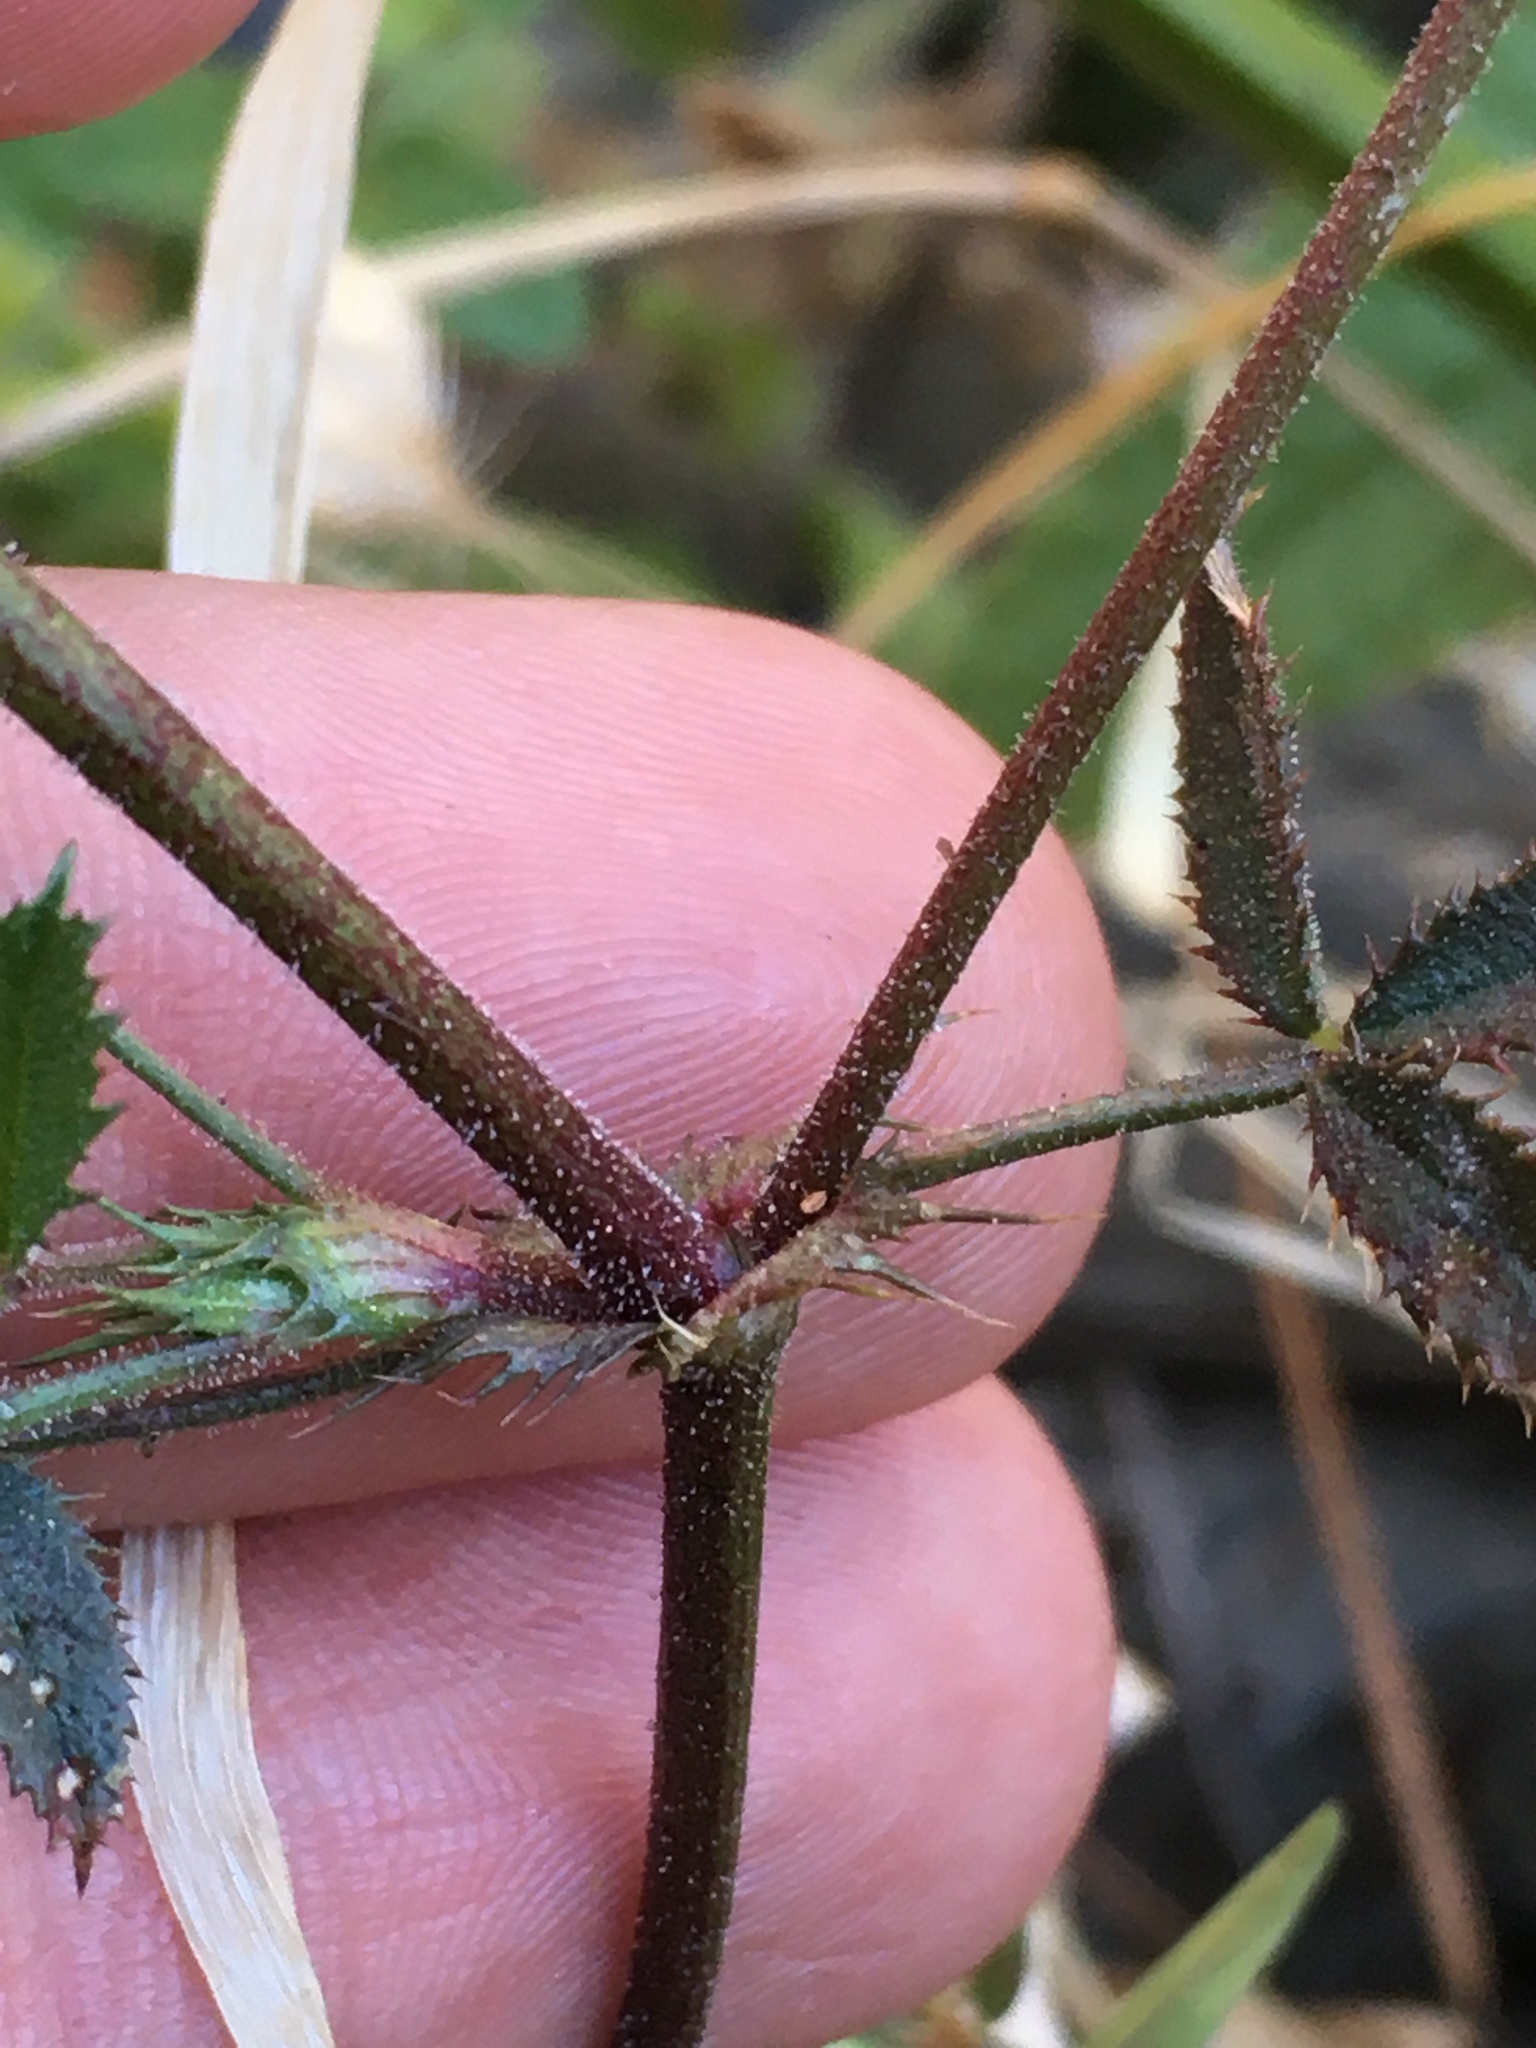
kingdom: Plantae
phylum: Tracheophyta
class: Magnoliopsida
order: Fabales
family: Fabaceae
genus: Trifolium
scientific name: Trifolium obtusiflorum
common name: Clammy clover
